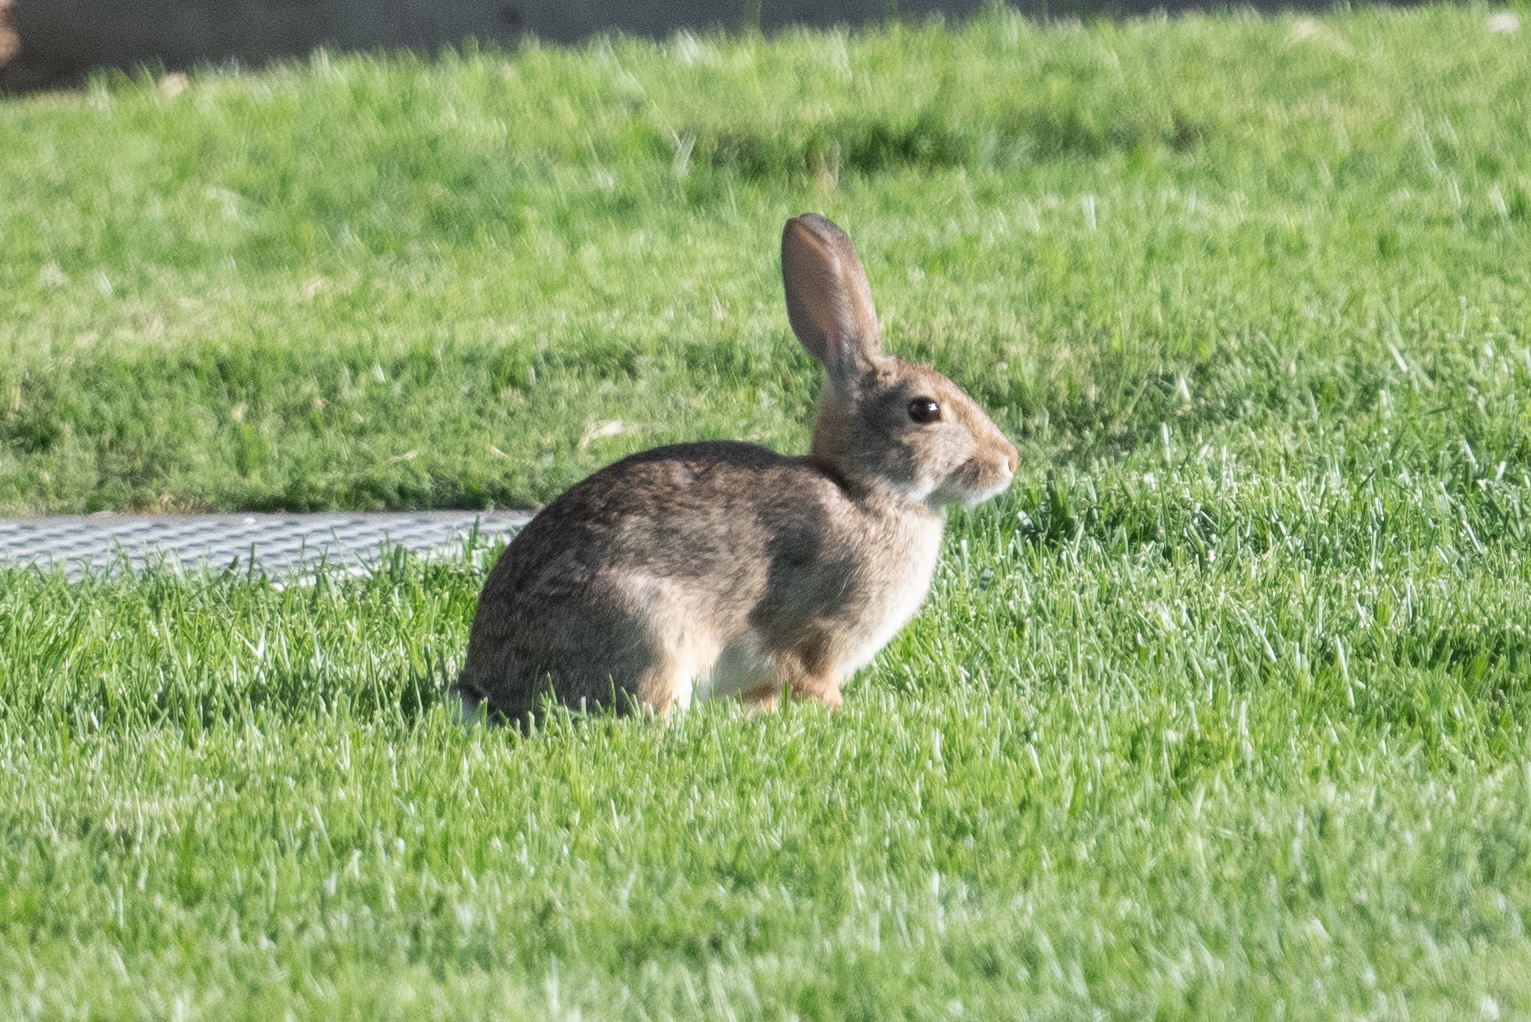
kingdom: Animalia
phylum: Chordata
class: Mammalia
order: Lagomorpha
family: Leporidae
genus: Sylvilagus
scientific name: Sylvilagus audubonii
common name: Desert cottontail
